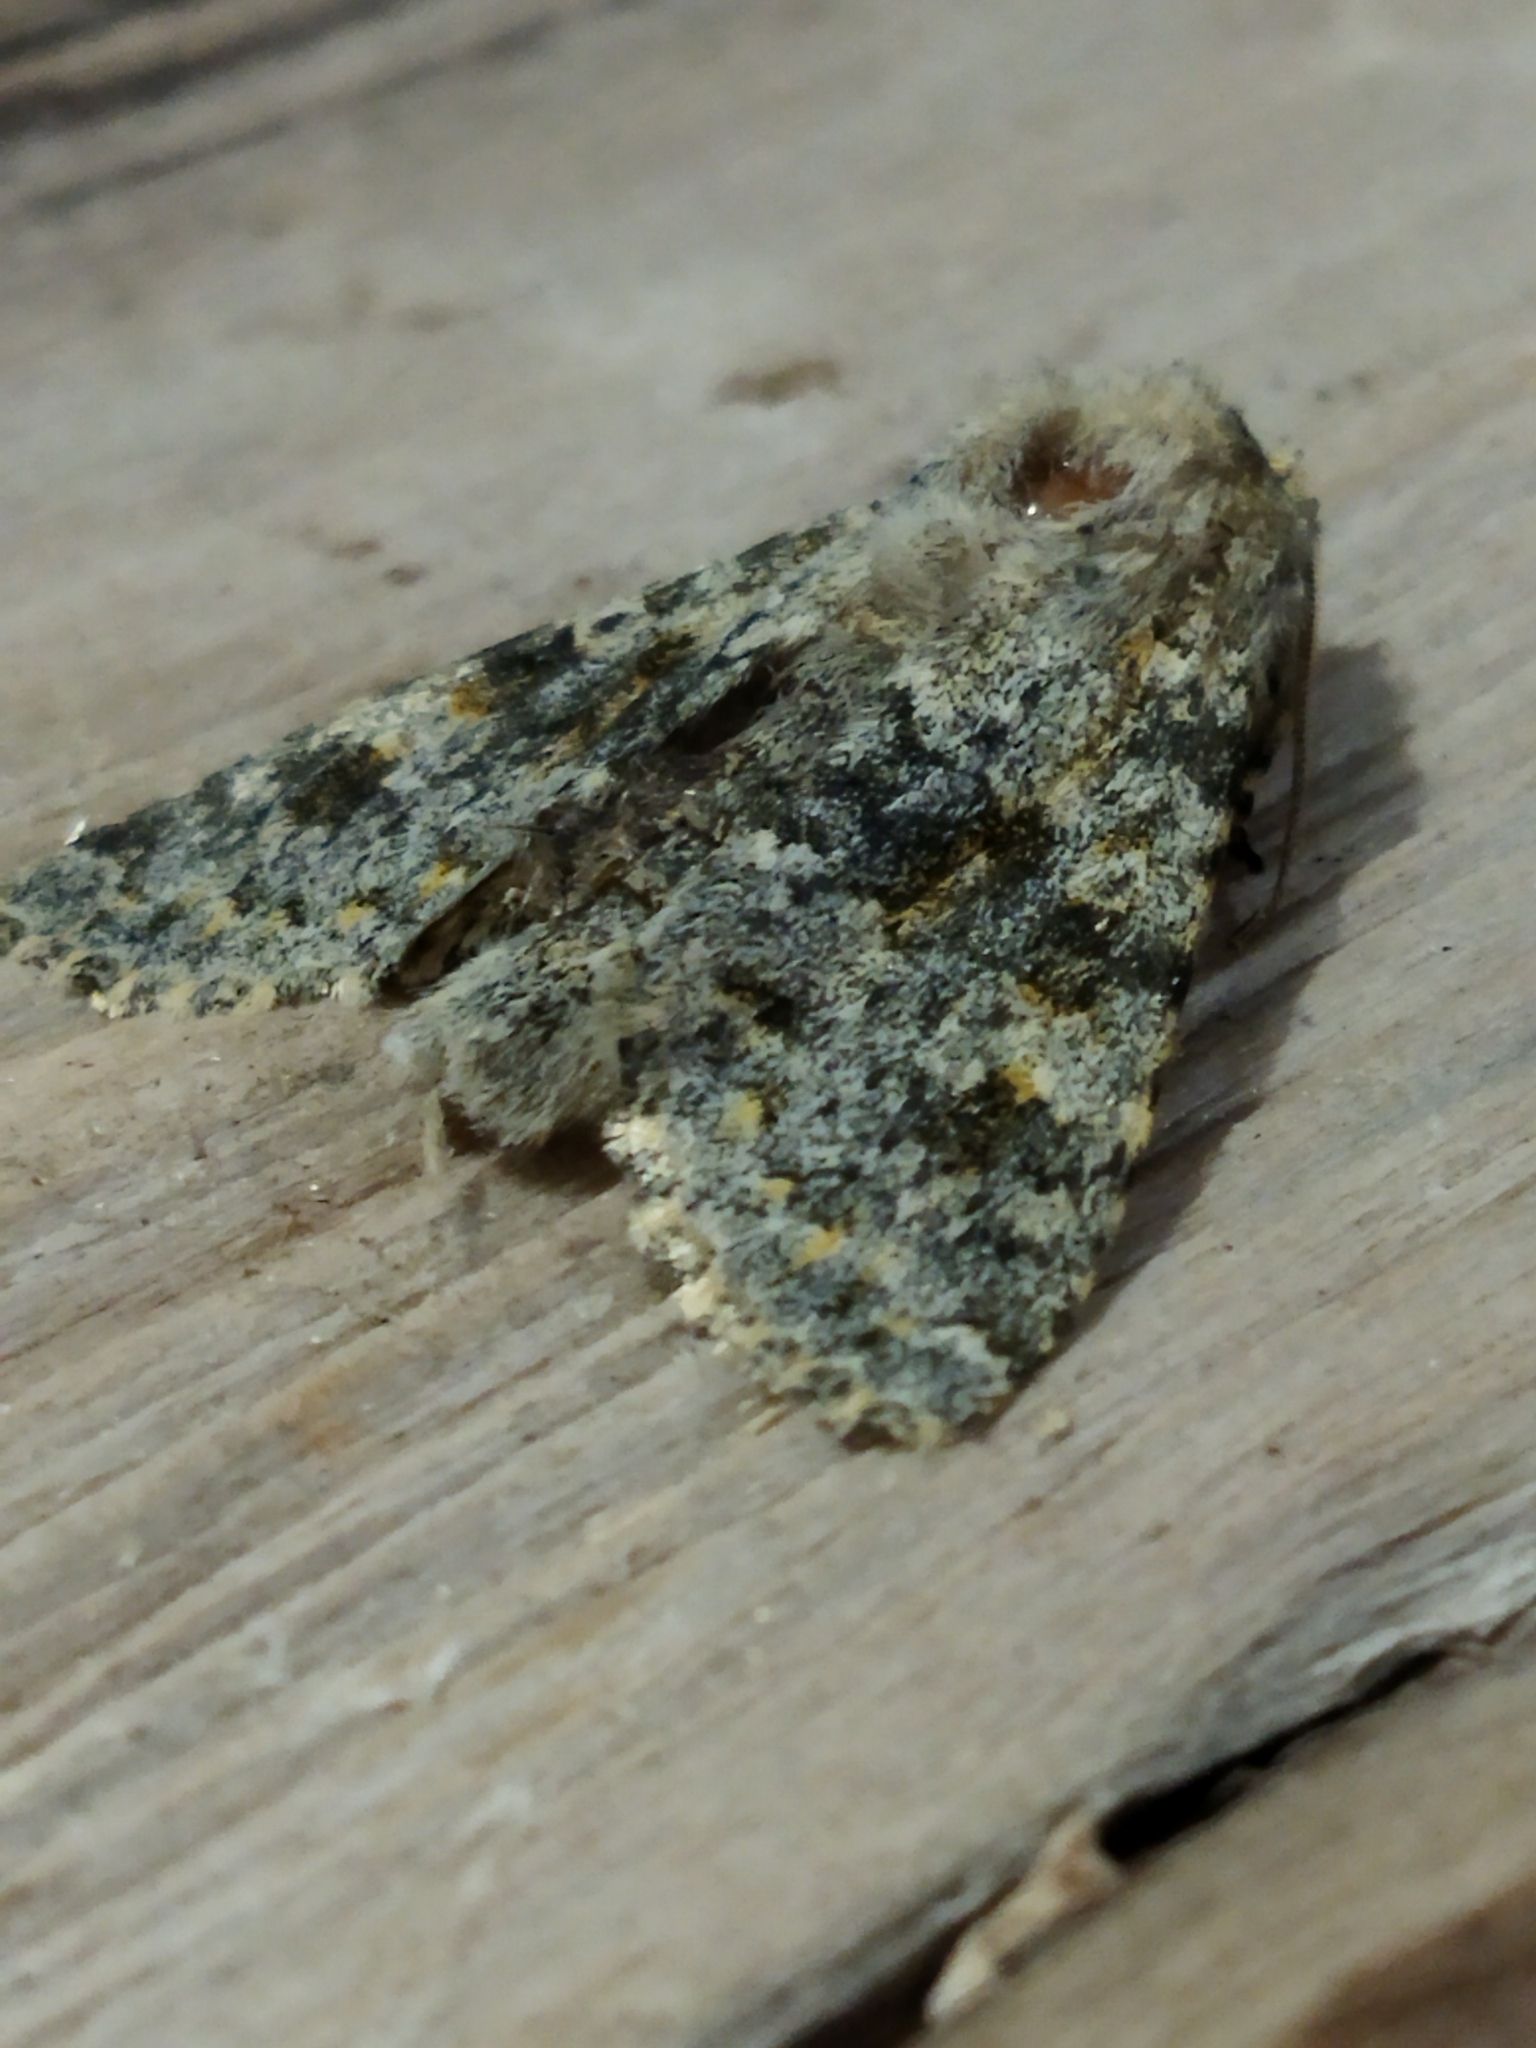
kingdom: Animalia
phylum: Arthropoda
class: Insecta
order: Lepidoptera
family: Noctuidae
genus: Polymixis
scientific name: Polymixis rufocincta
